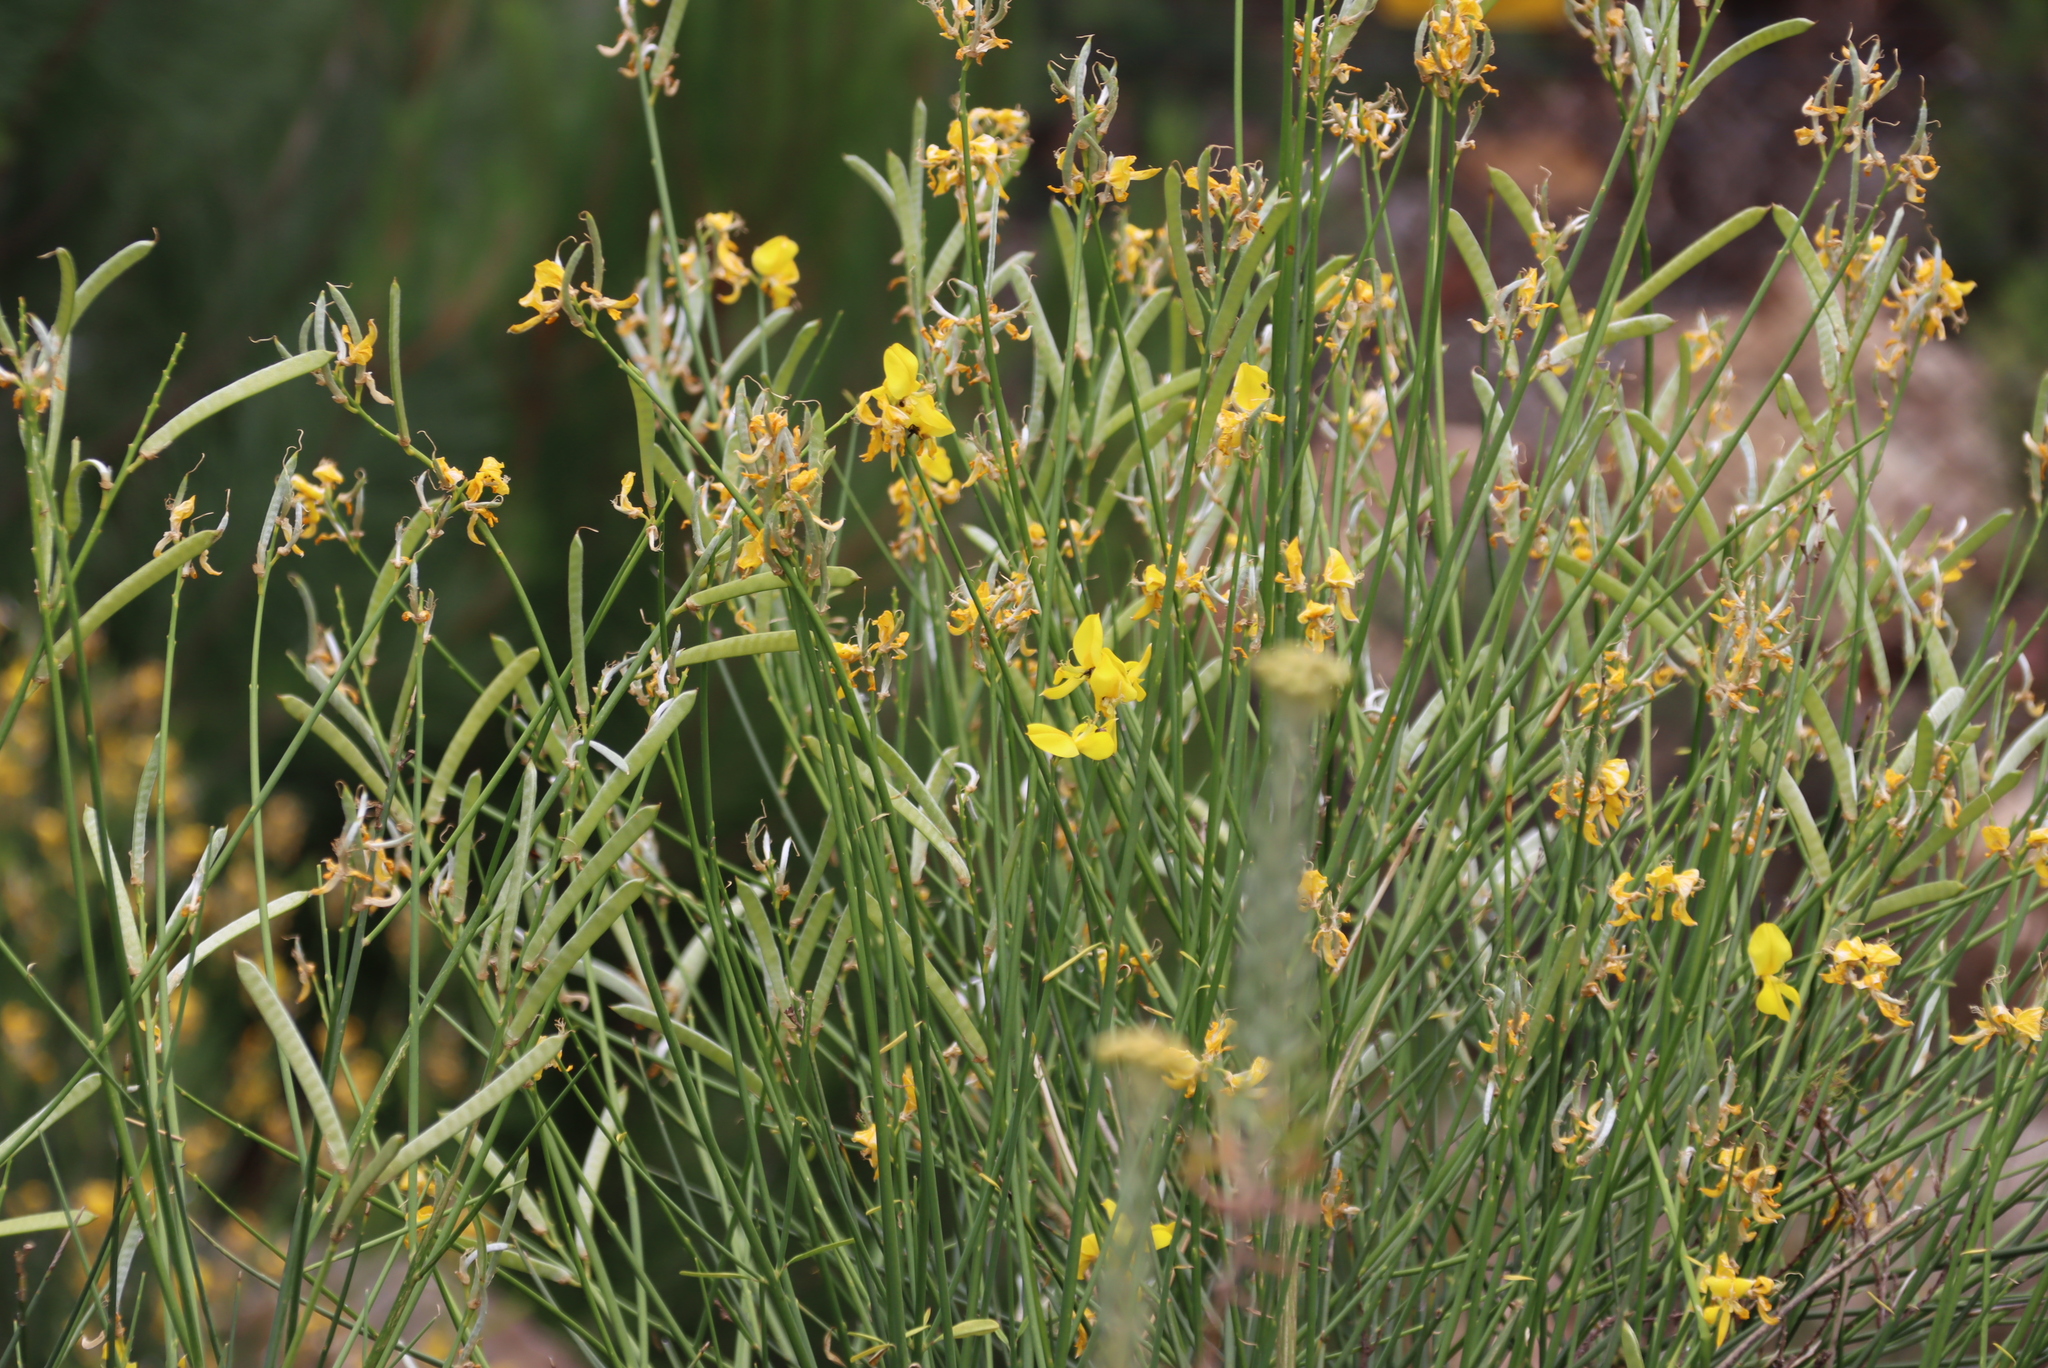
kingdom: Plantae
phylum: Tracheophyta
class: Magnoliopsida
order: Fabales
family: Fabaceae
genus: Spartium
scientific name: Spartium junceum
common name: Spanish broom
